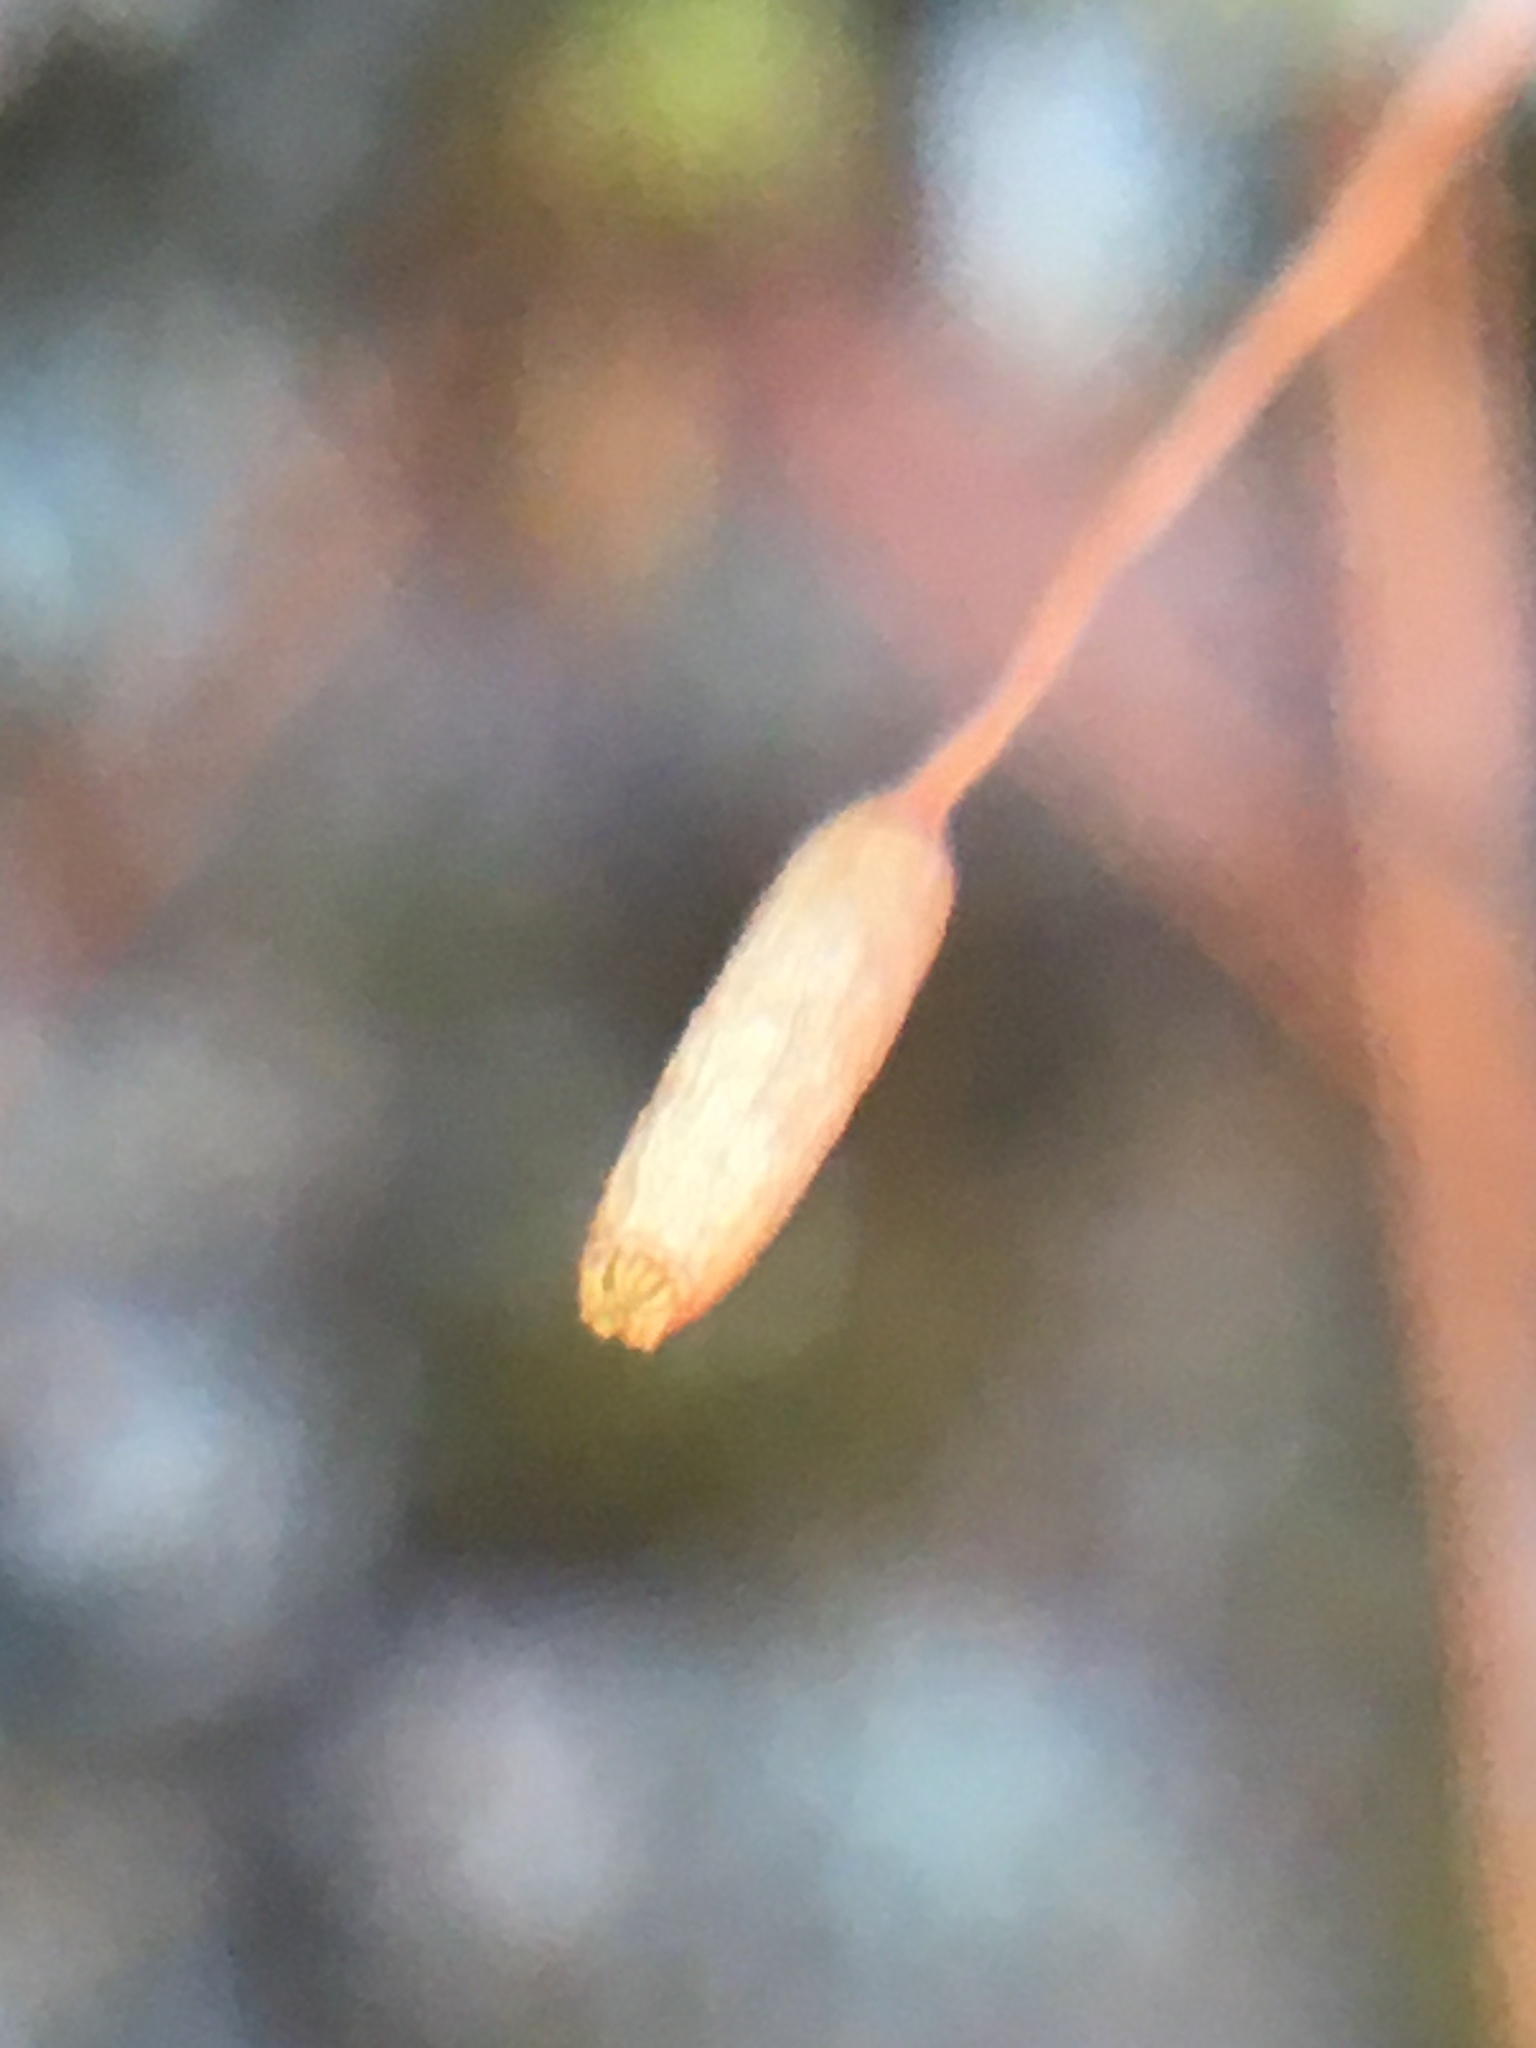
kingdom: Plantae
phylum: Bryophyta
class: Bryopsida
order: Dicranales
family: Dicranaceae
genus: Orthodicranum
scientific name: Orthodicranum montanum
